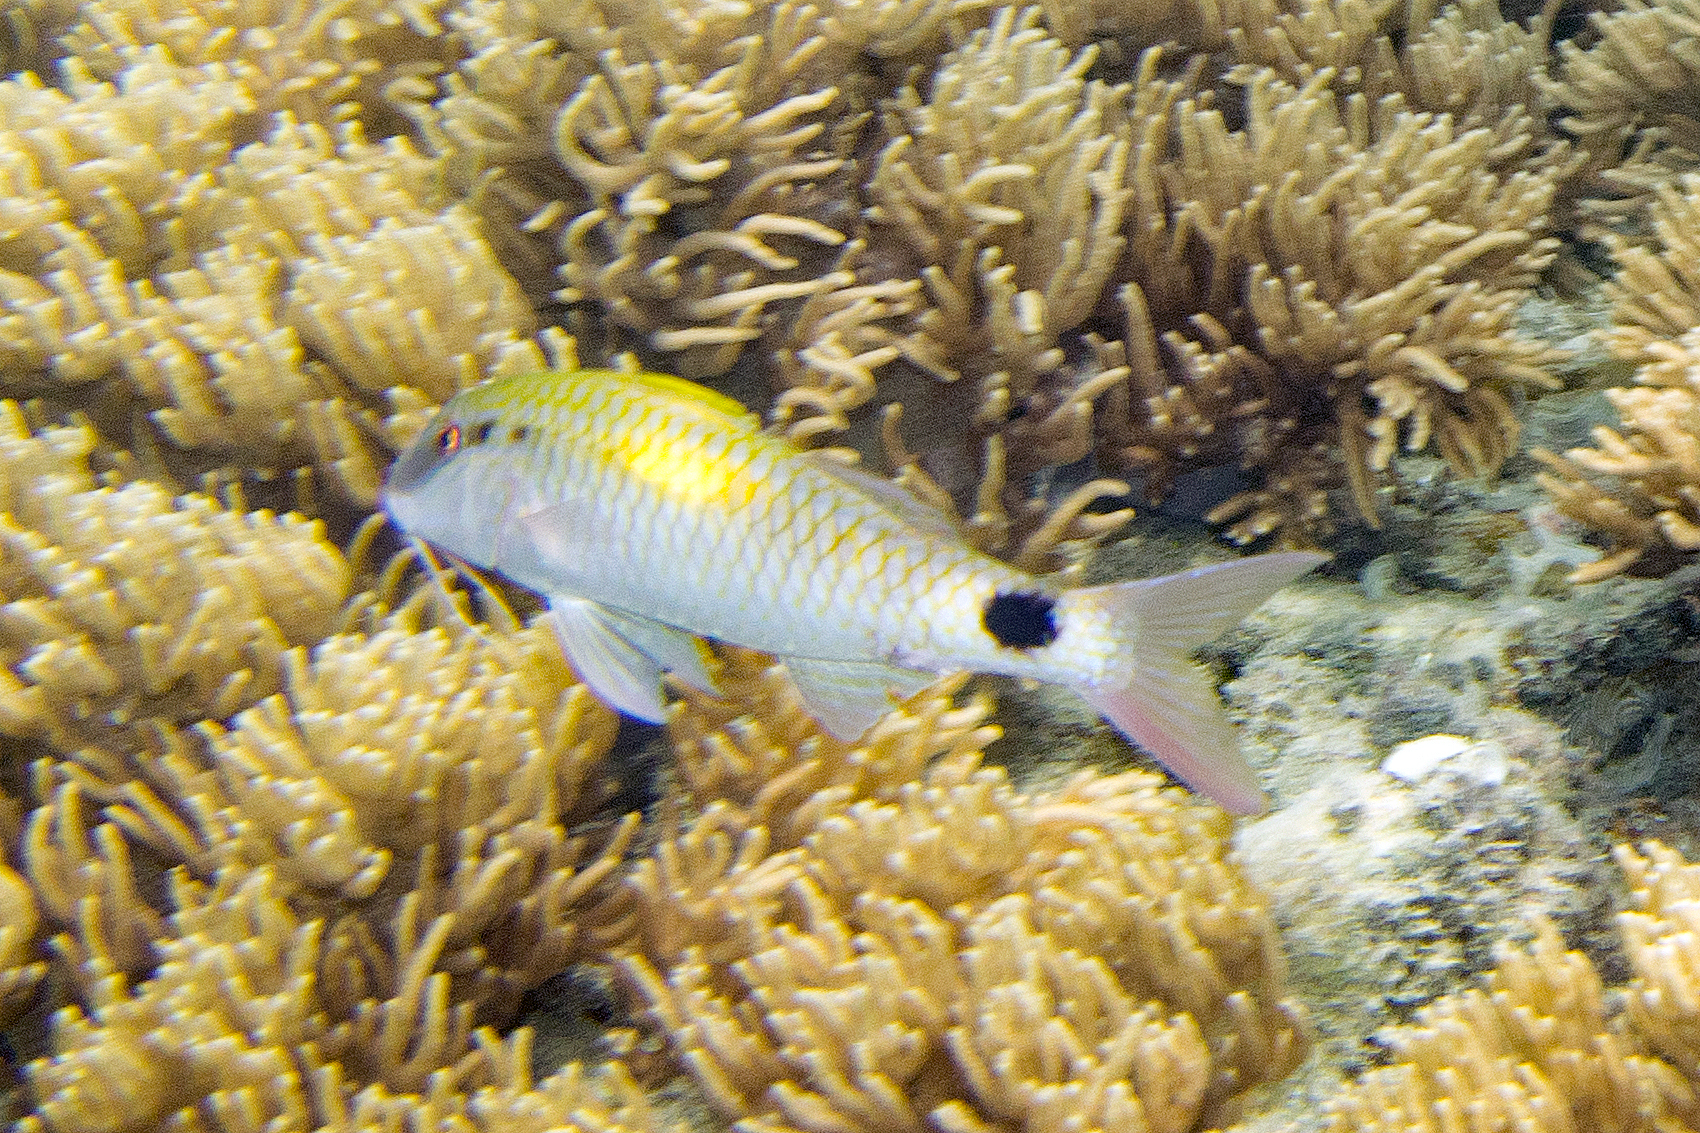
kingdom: Animalia
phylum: Chordata
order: Perciformes
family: Mullidae
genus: Parupeneus
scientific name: Parupeneus indicus
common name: Indian goatfish
